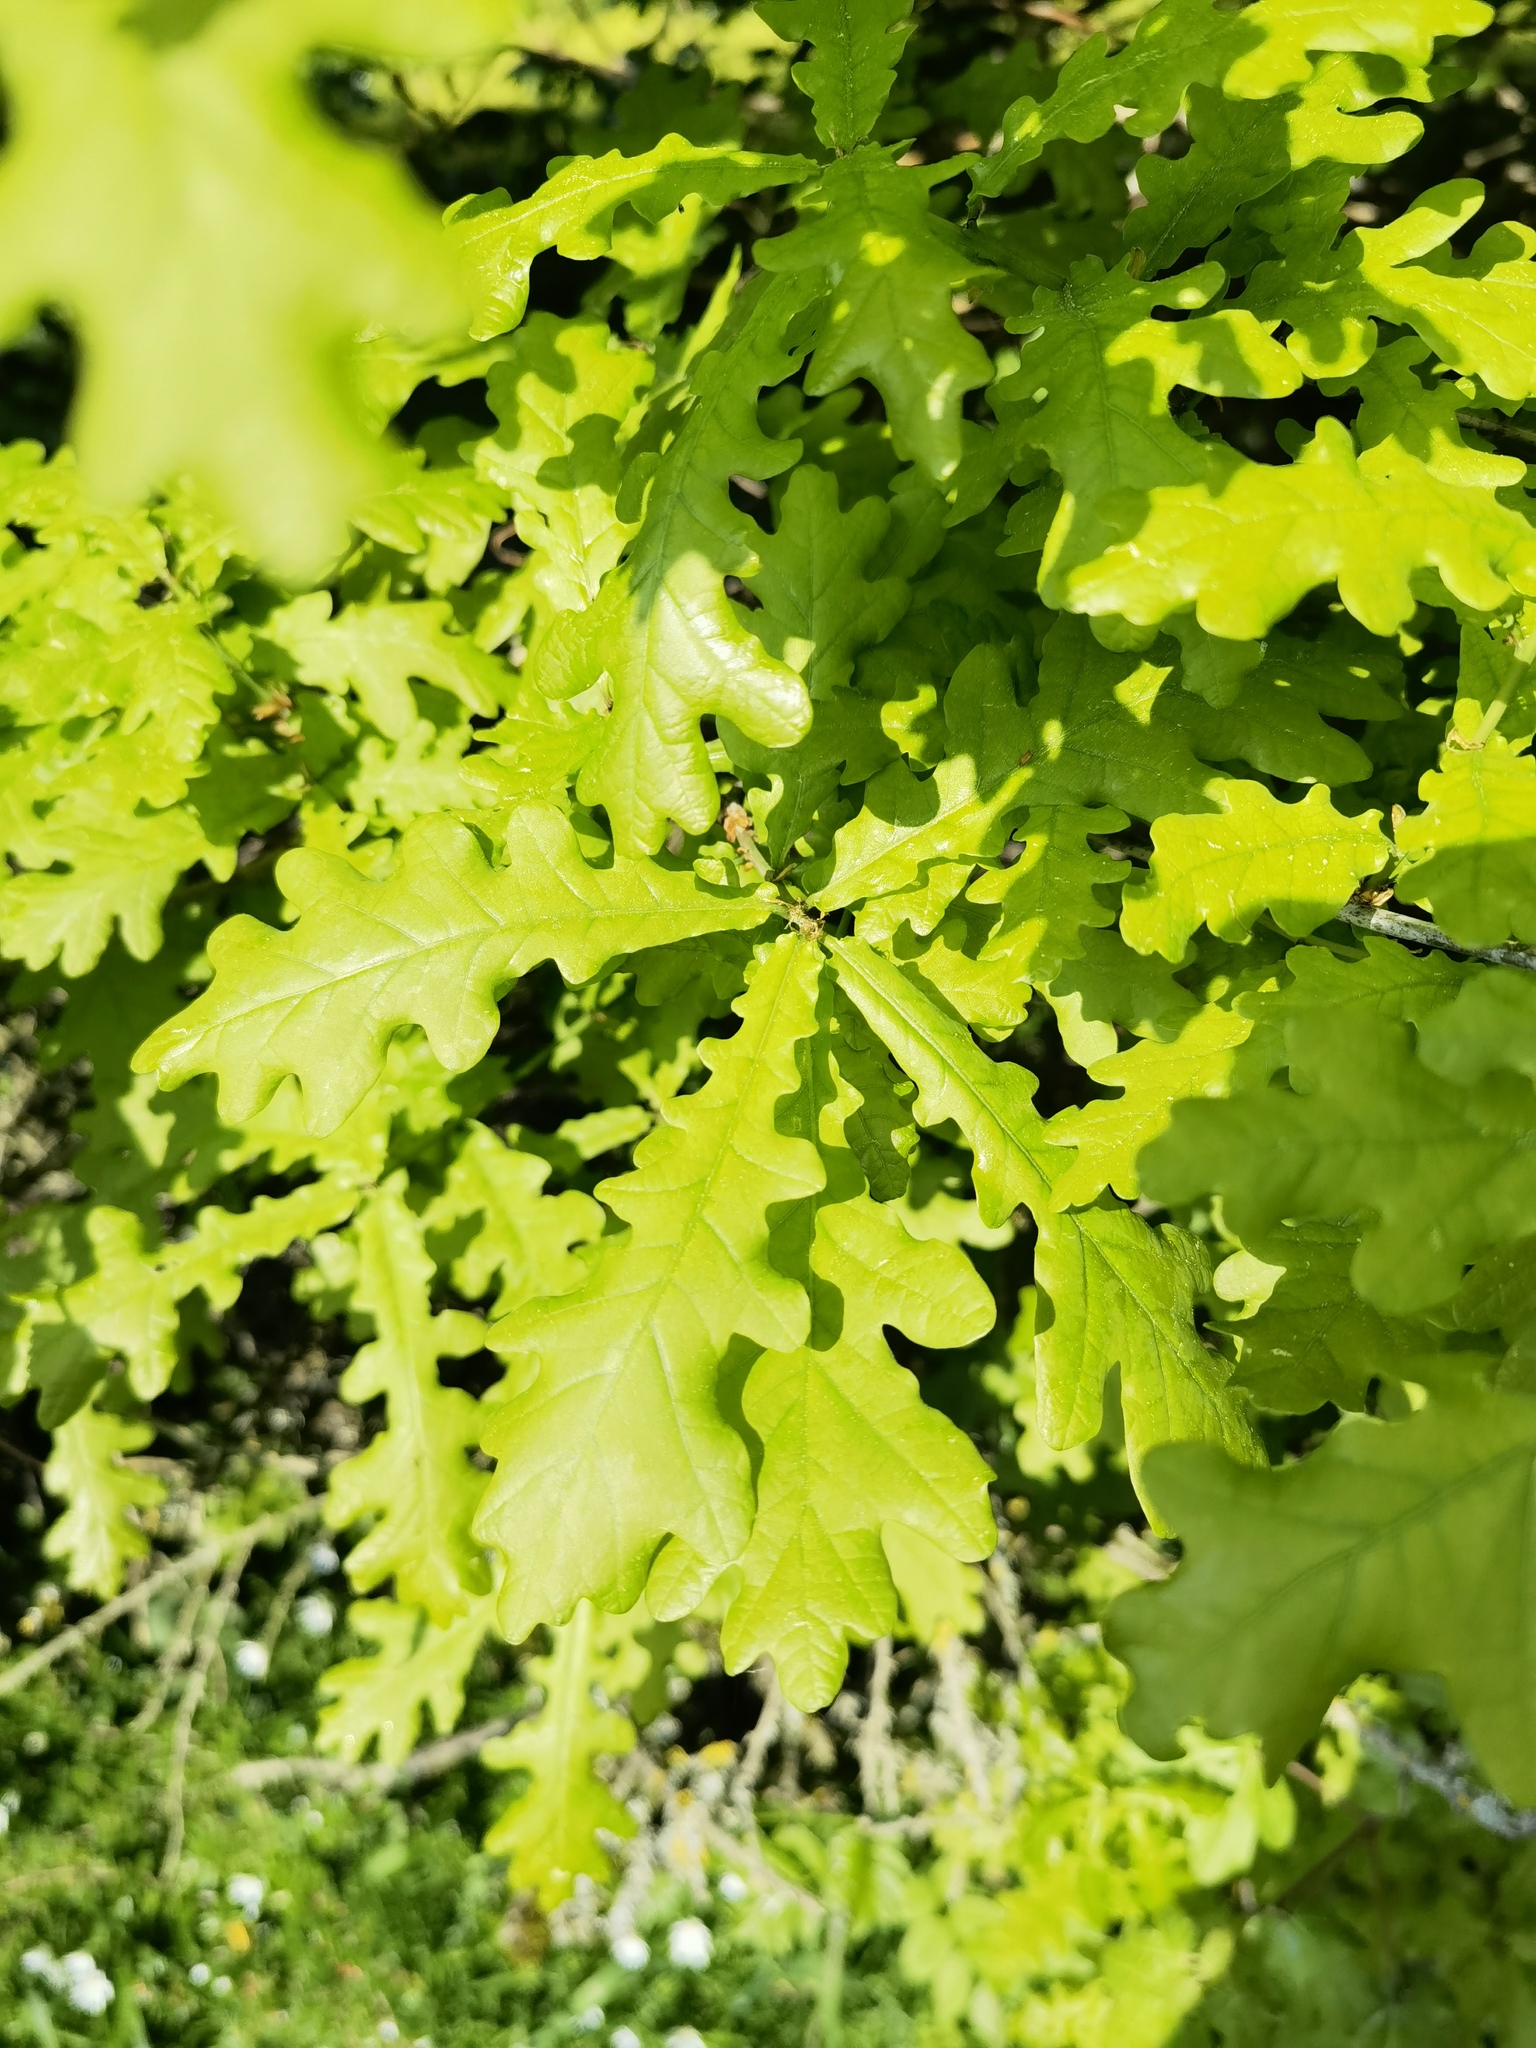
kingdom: Plantae
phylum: Tracheophyta
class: Magnoliopsida
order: Fagales
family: Fagaceae
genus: Quercus
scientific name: Quercus robur
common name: Pedunculate oak
